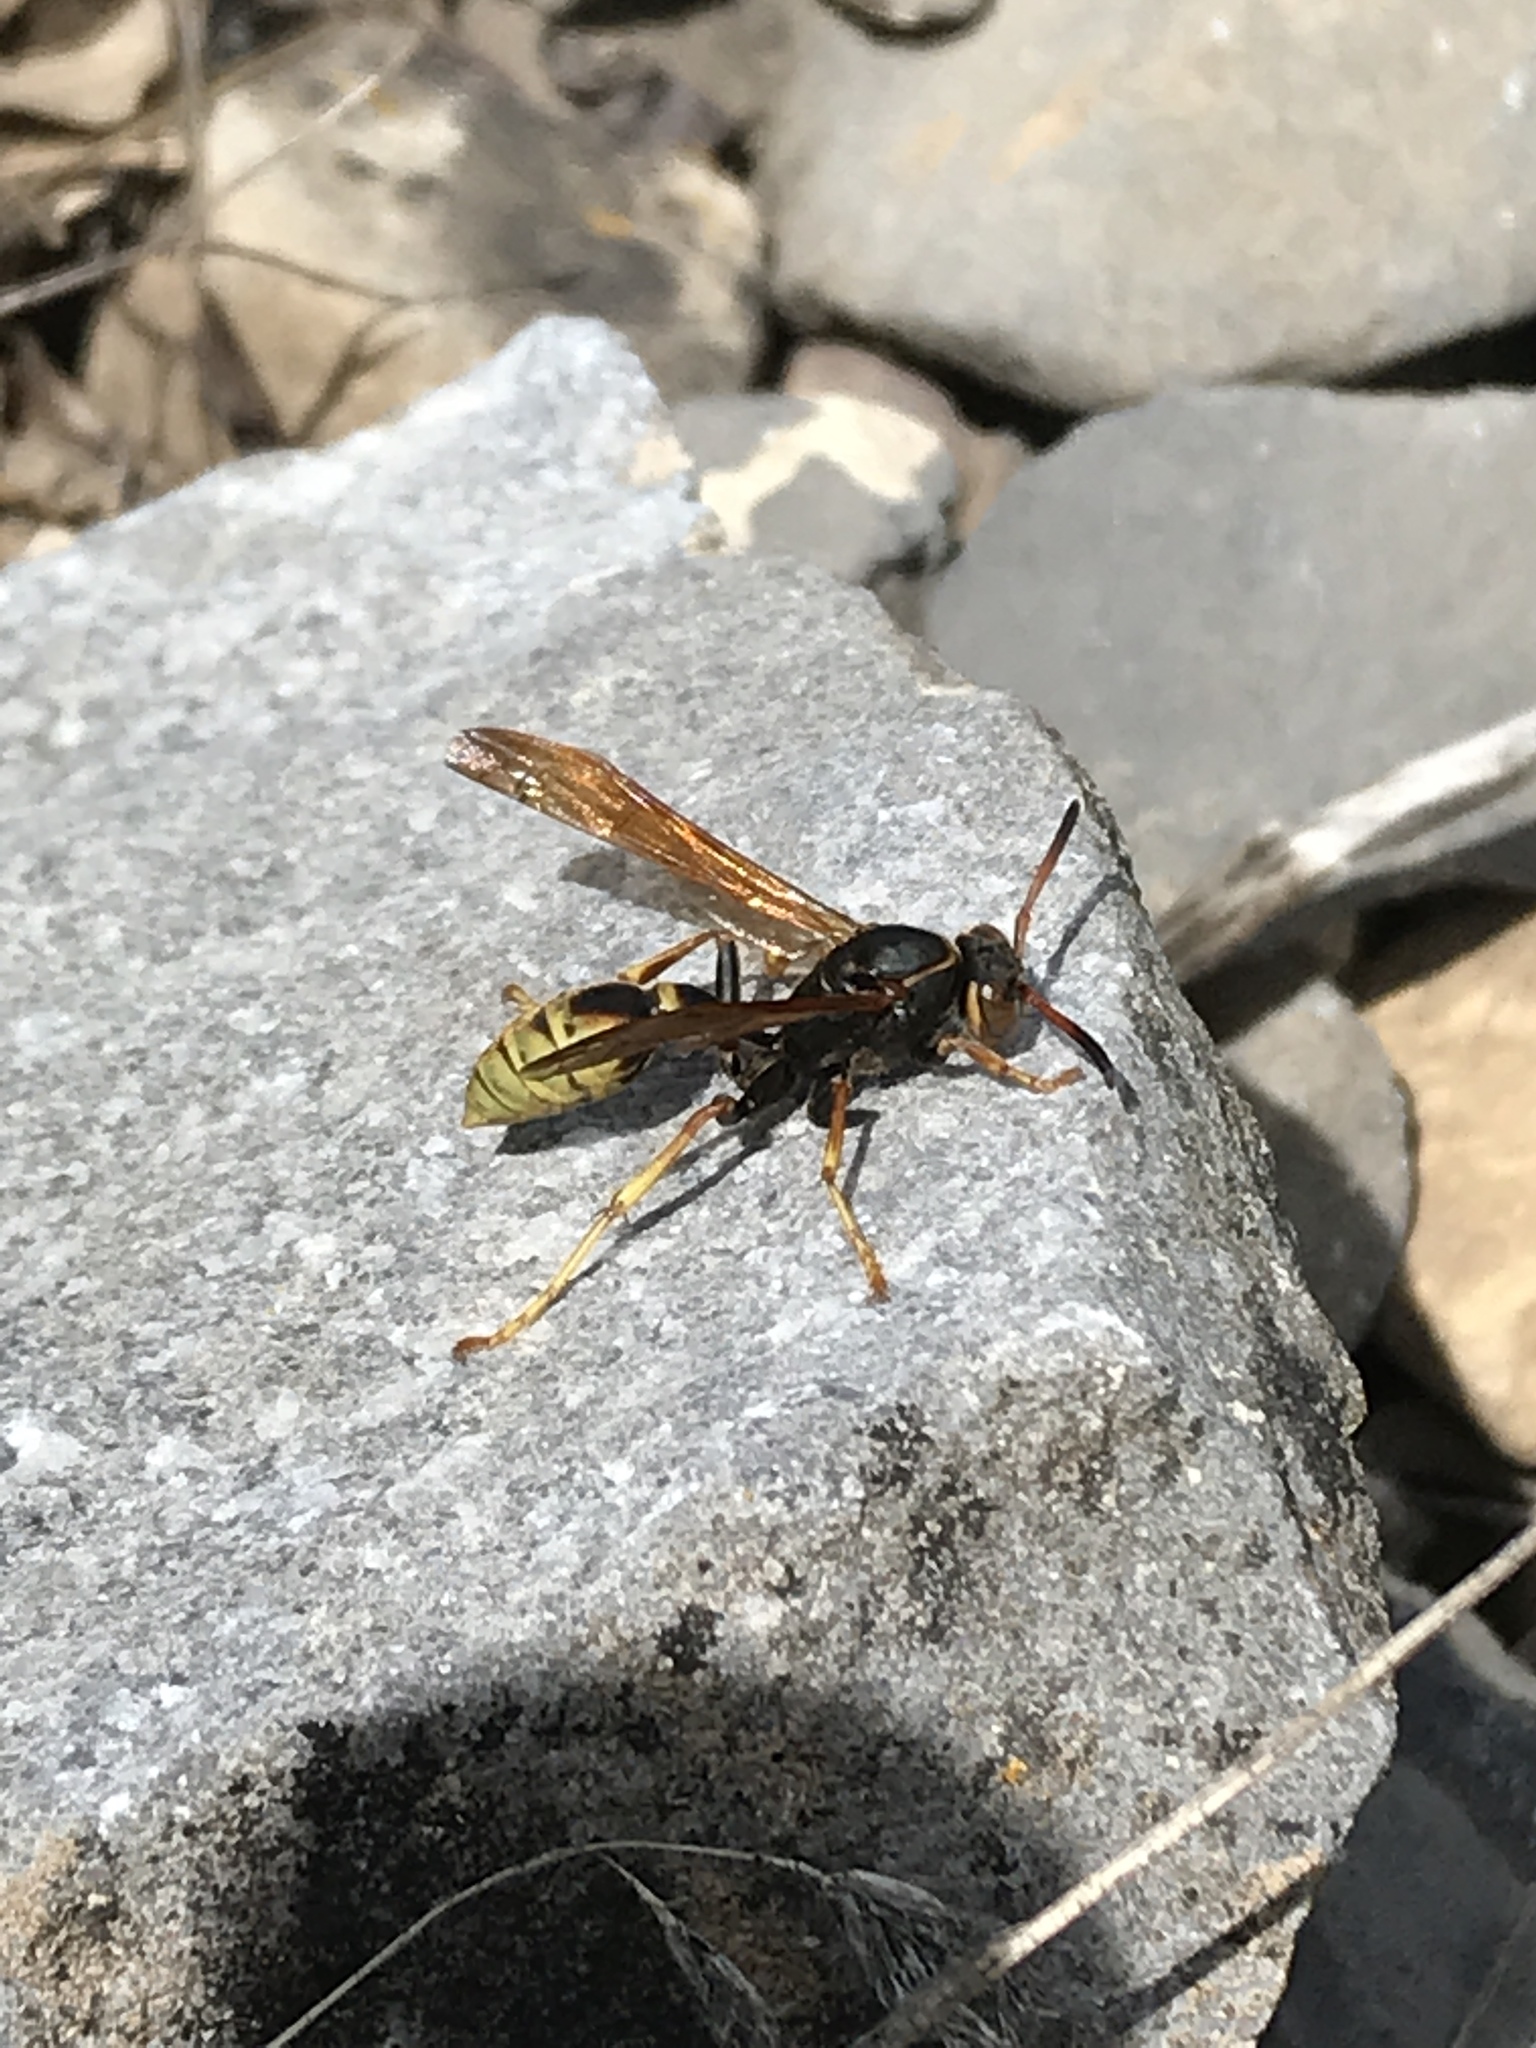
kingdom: Animalia
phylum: Arthropoda
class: Insecta
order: Hymenoptera
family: Vespidae
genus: Mischocyttarus
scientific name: Mischocyttarus flavitarsis
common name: Wasp
